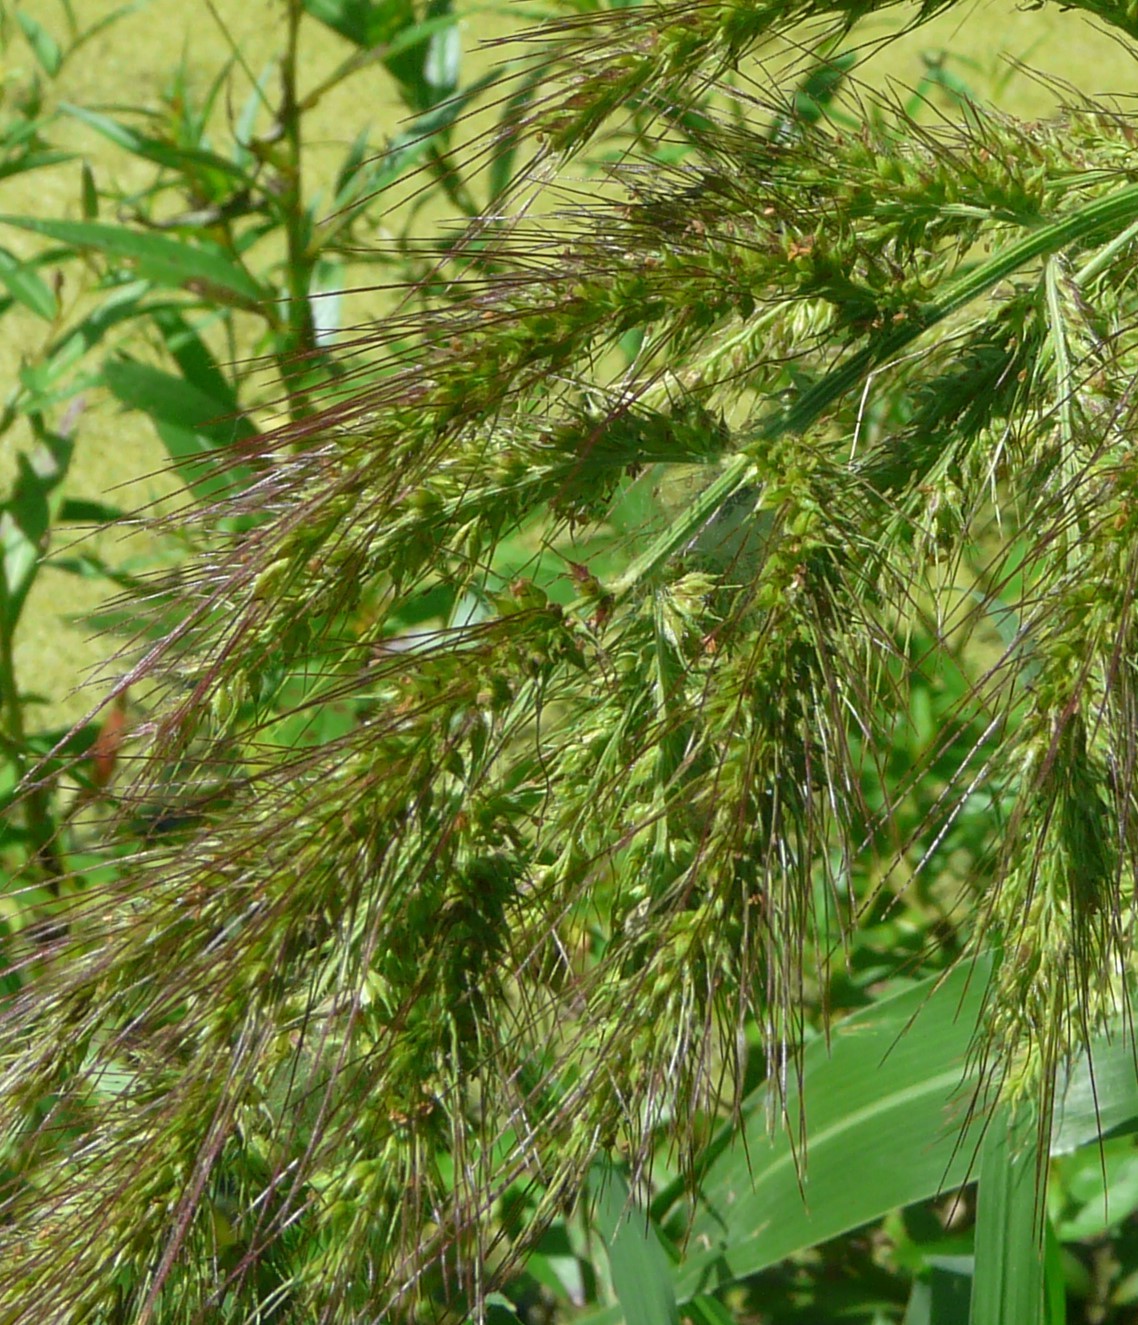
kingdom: Plantae
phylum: Tracheophyta
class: Liliopsida
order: Poales
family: Poaceae
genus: Echinochloa
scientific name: Echinochloa walteri
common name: Coast barnyard grass
